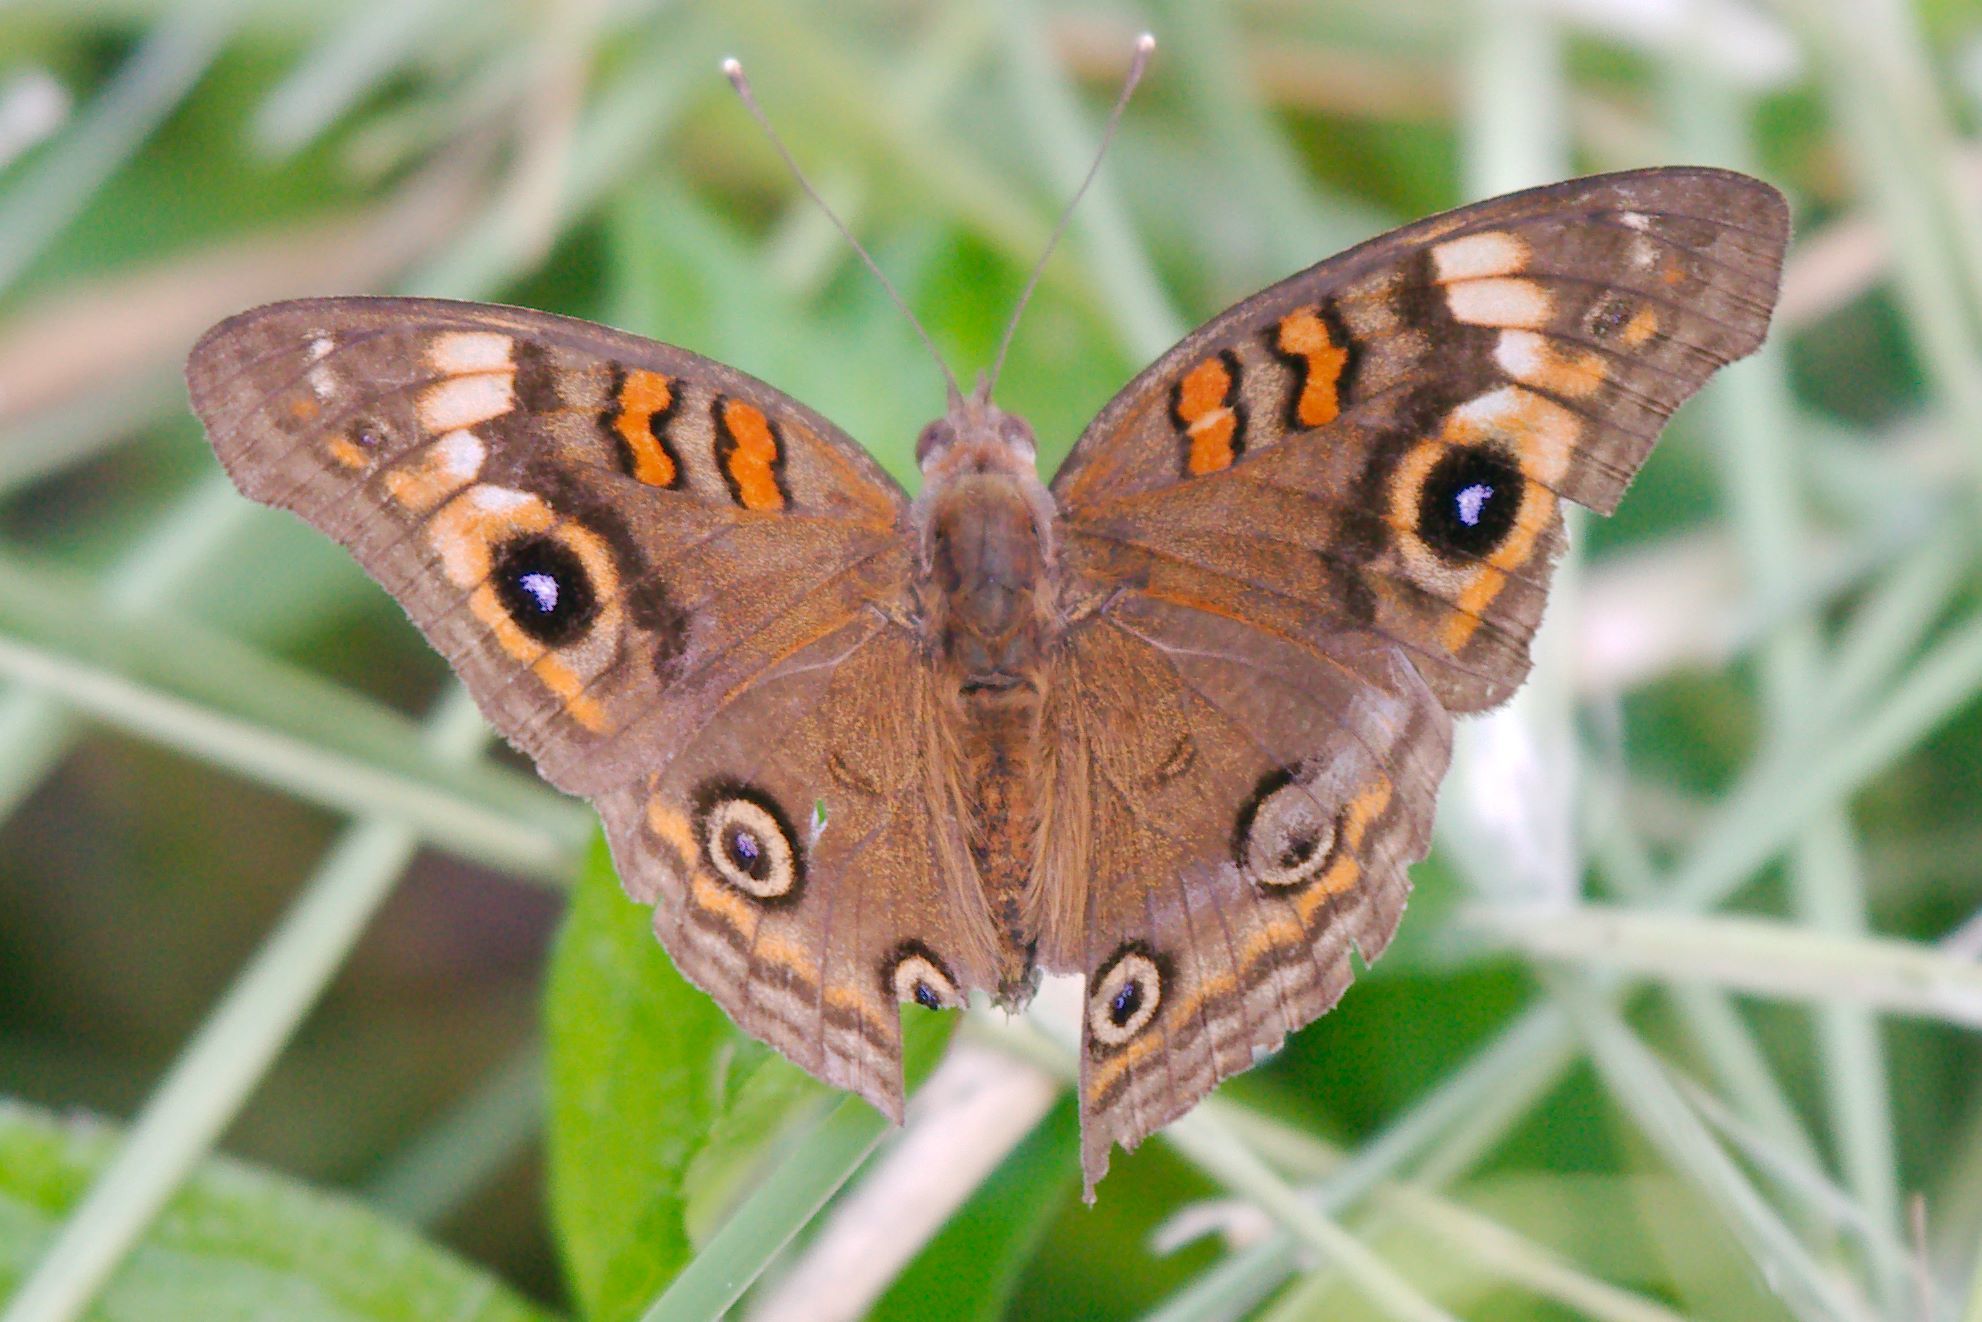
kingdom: Animalia
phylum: Arthropoda
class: Insecta
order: Lepidoptera
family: Nymphalidae
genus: Junonia
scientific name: Junonia neildi
